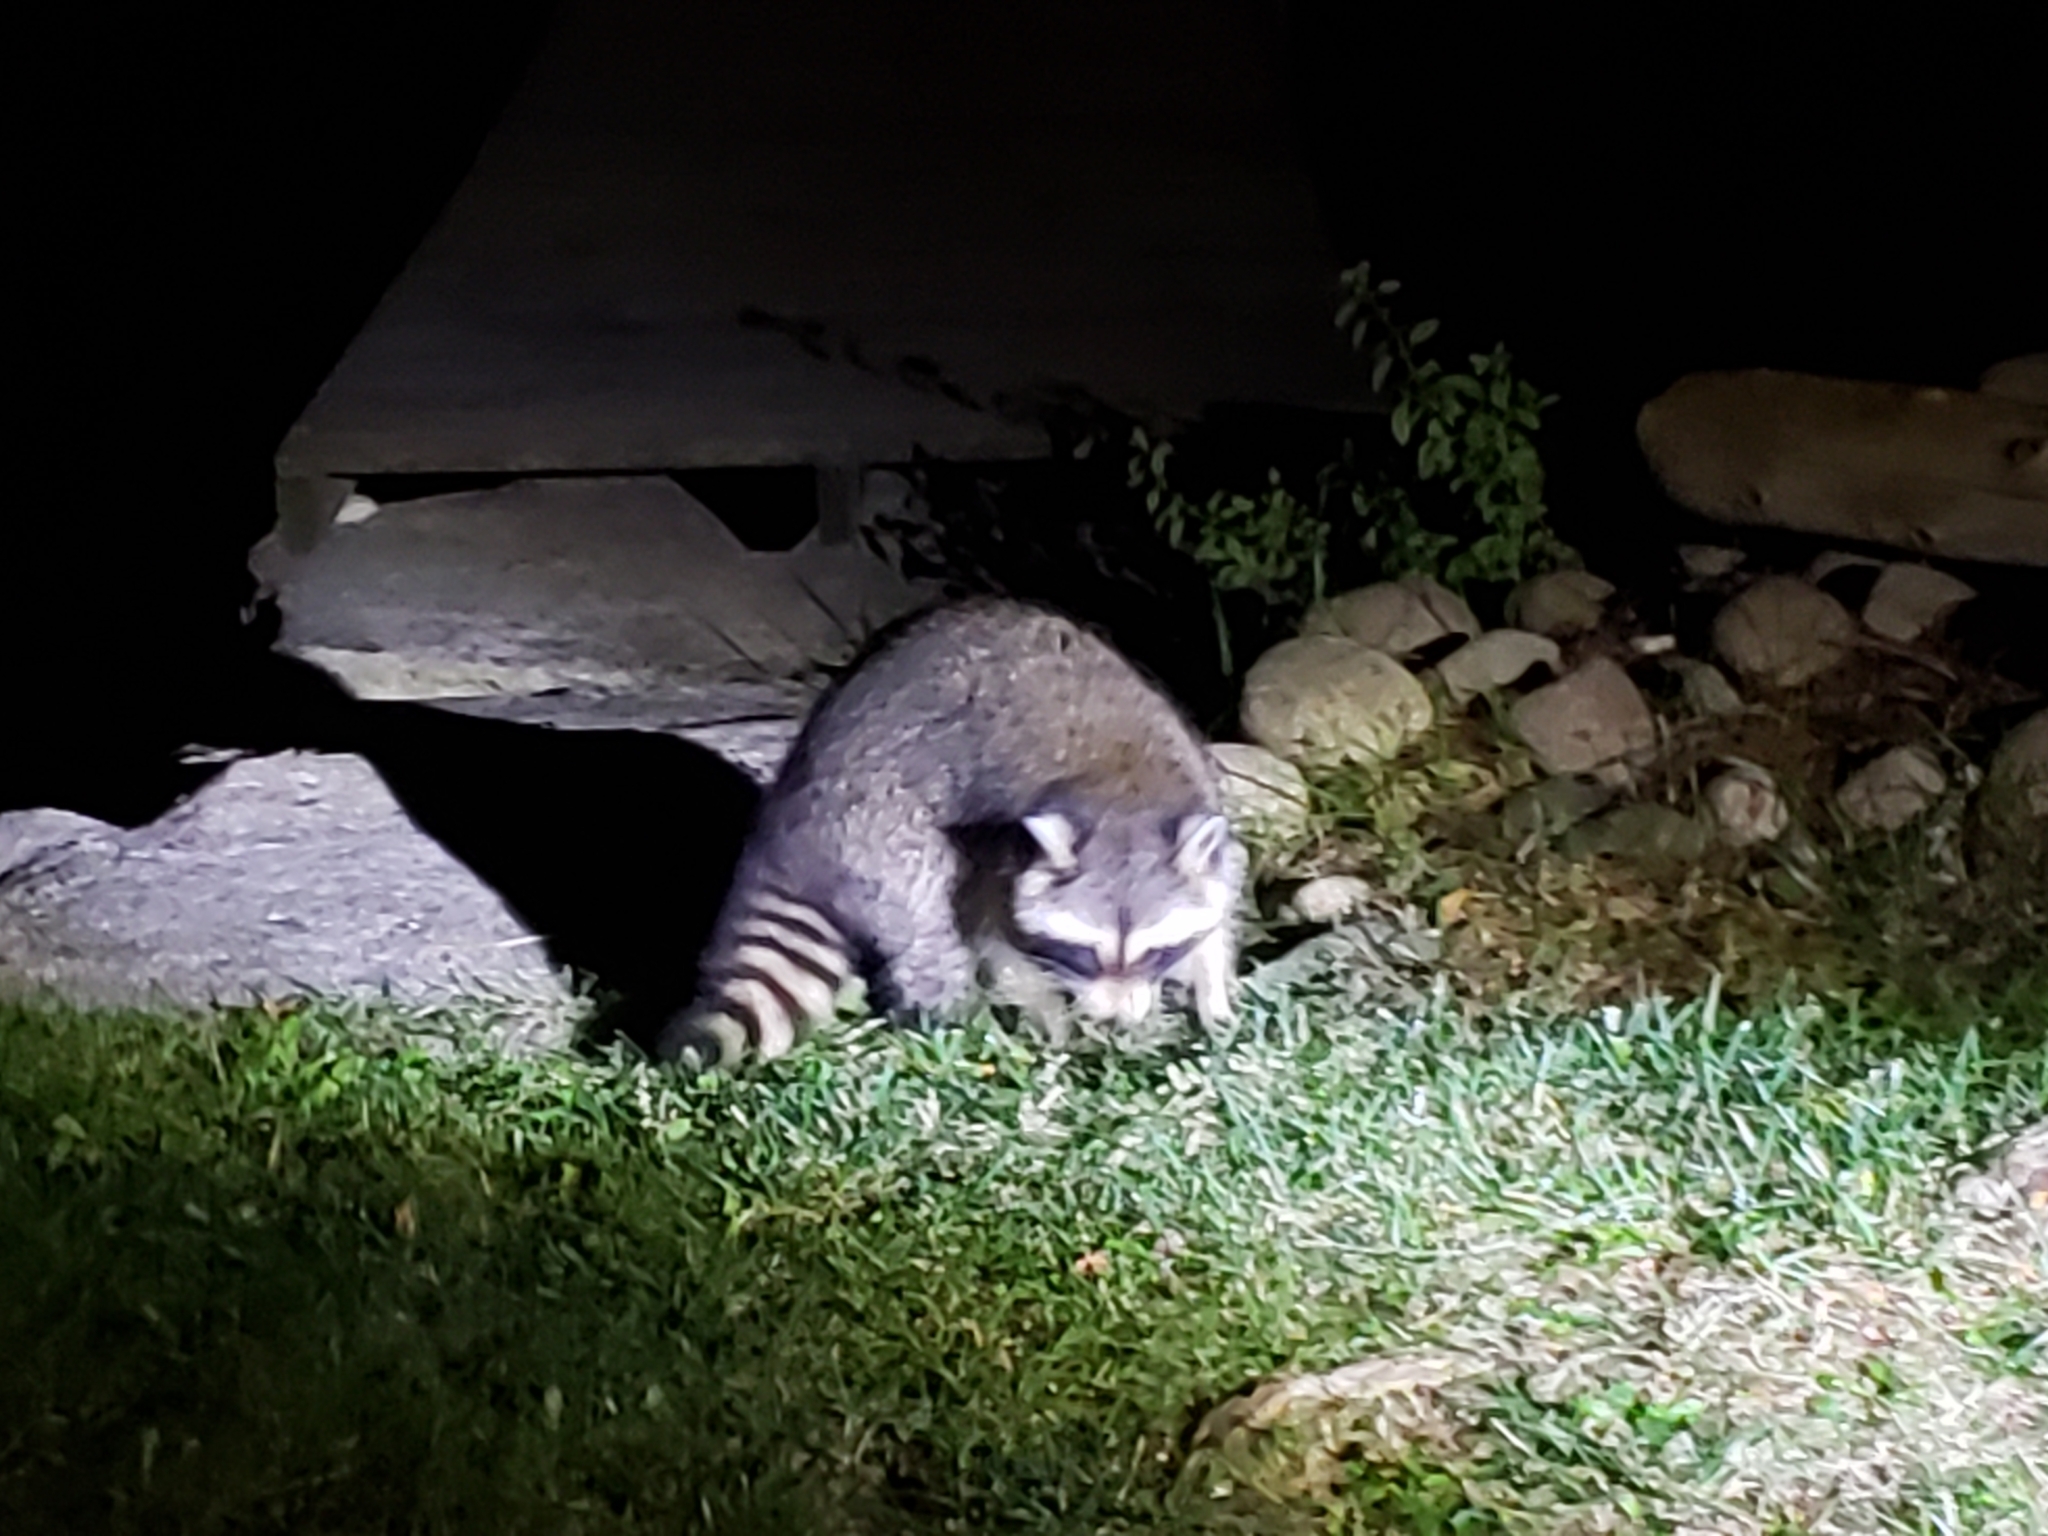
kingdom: Animalia
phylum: Chordata
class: Mammalia
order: Carnivora
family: Procyonidae
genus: Procyon
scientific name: Procyon lotor
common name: Raccoon
